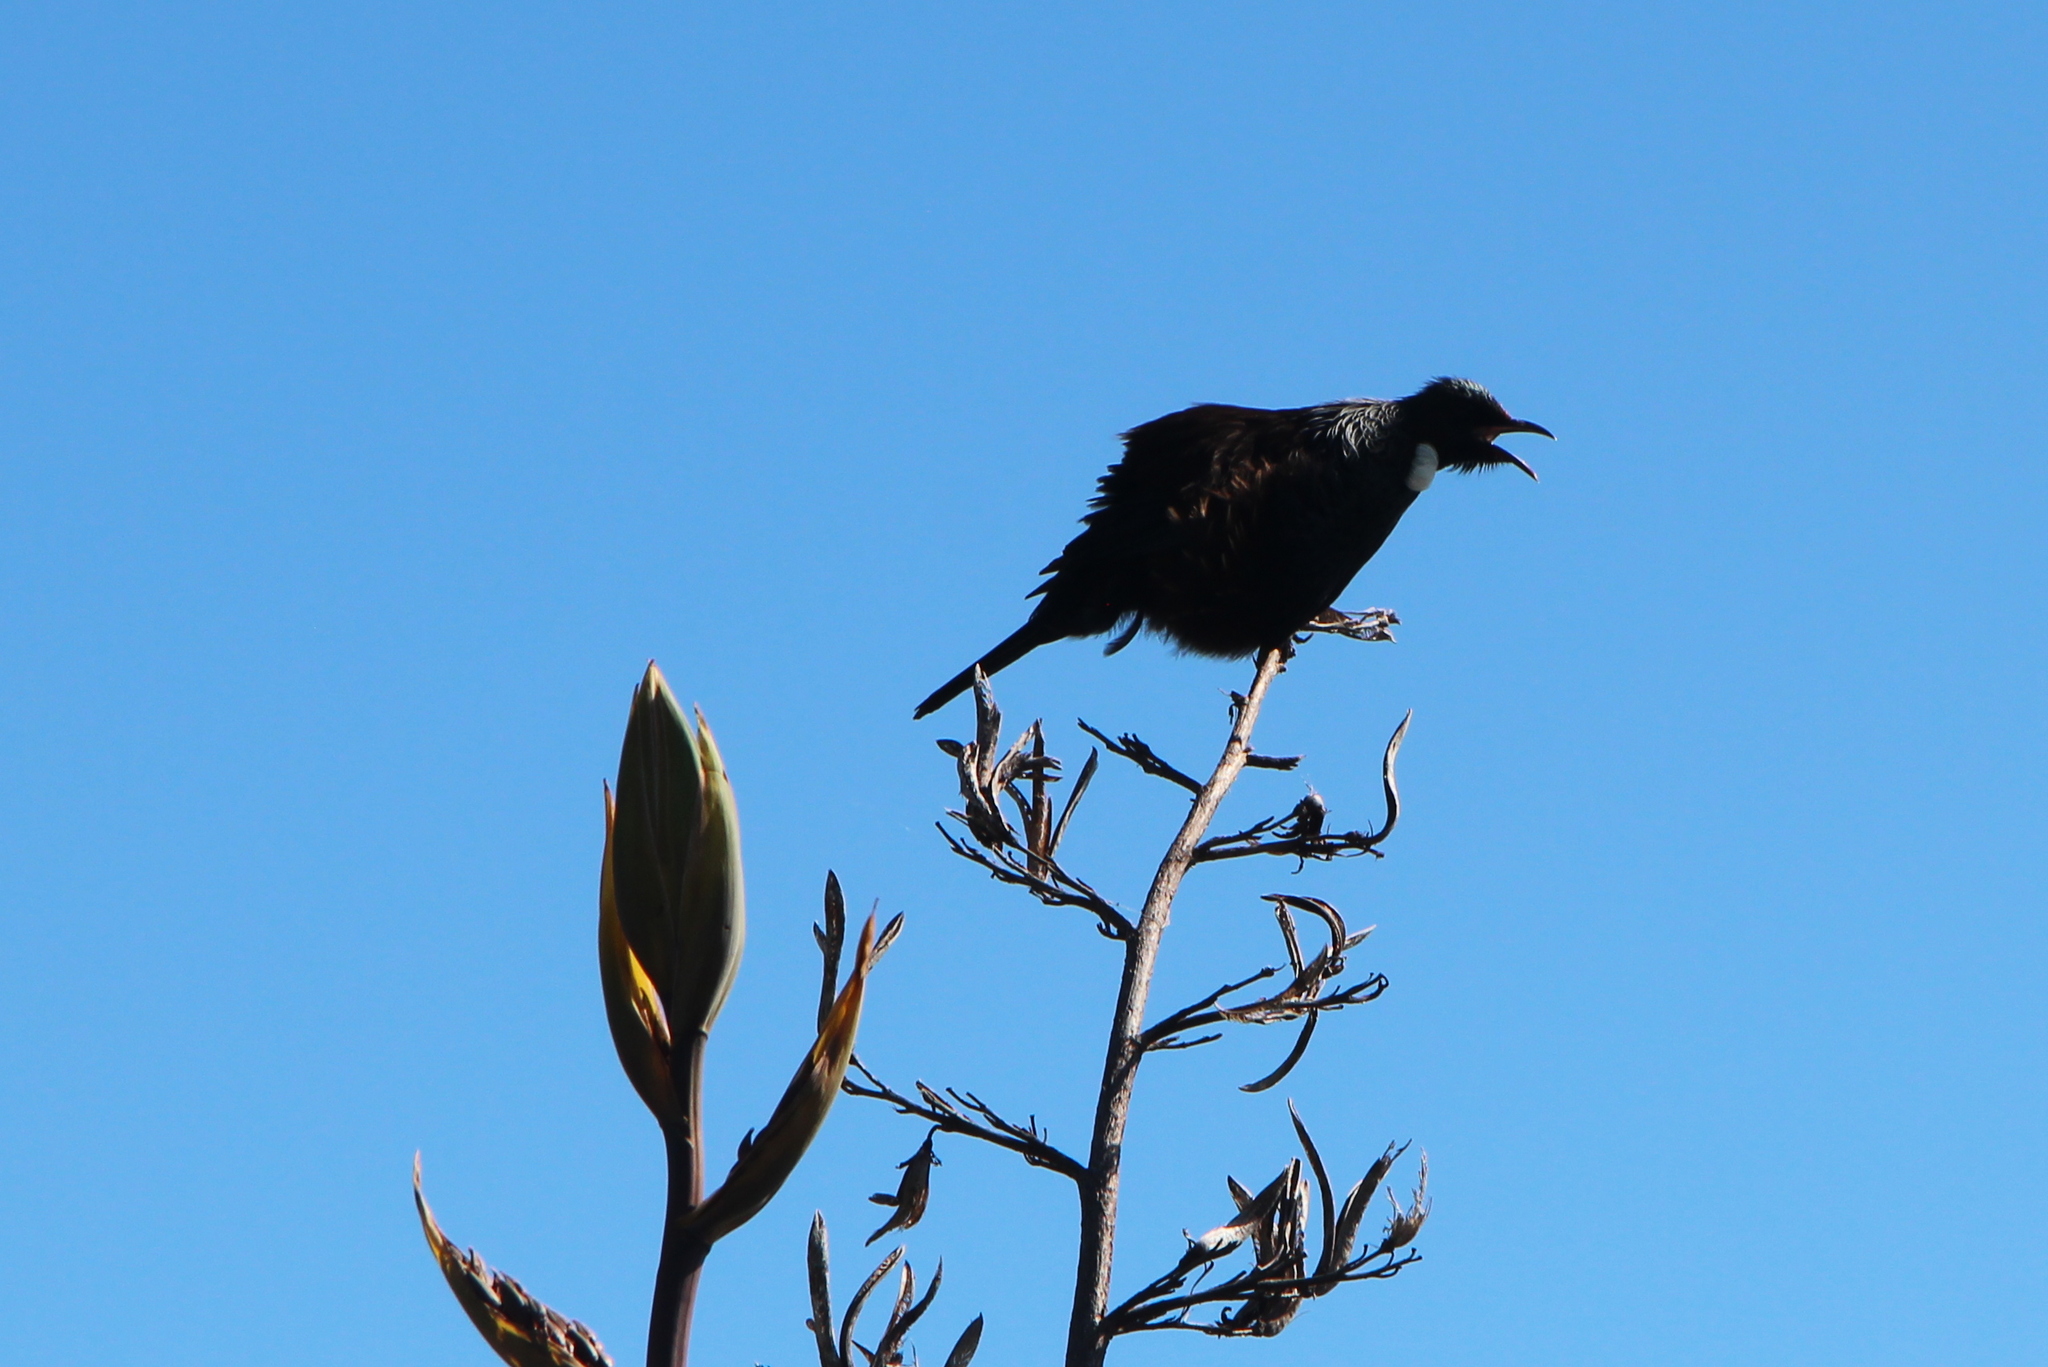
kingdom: Animalia
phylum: Chordata
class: Aves
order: Passeriformes
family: Meliphagidae
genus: Prosthemadera
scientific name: Prosthemadera novaeseelandiae
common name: Tui
